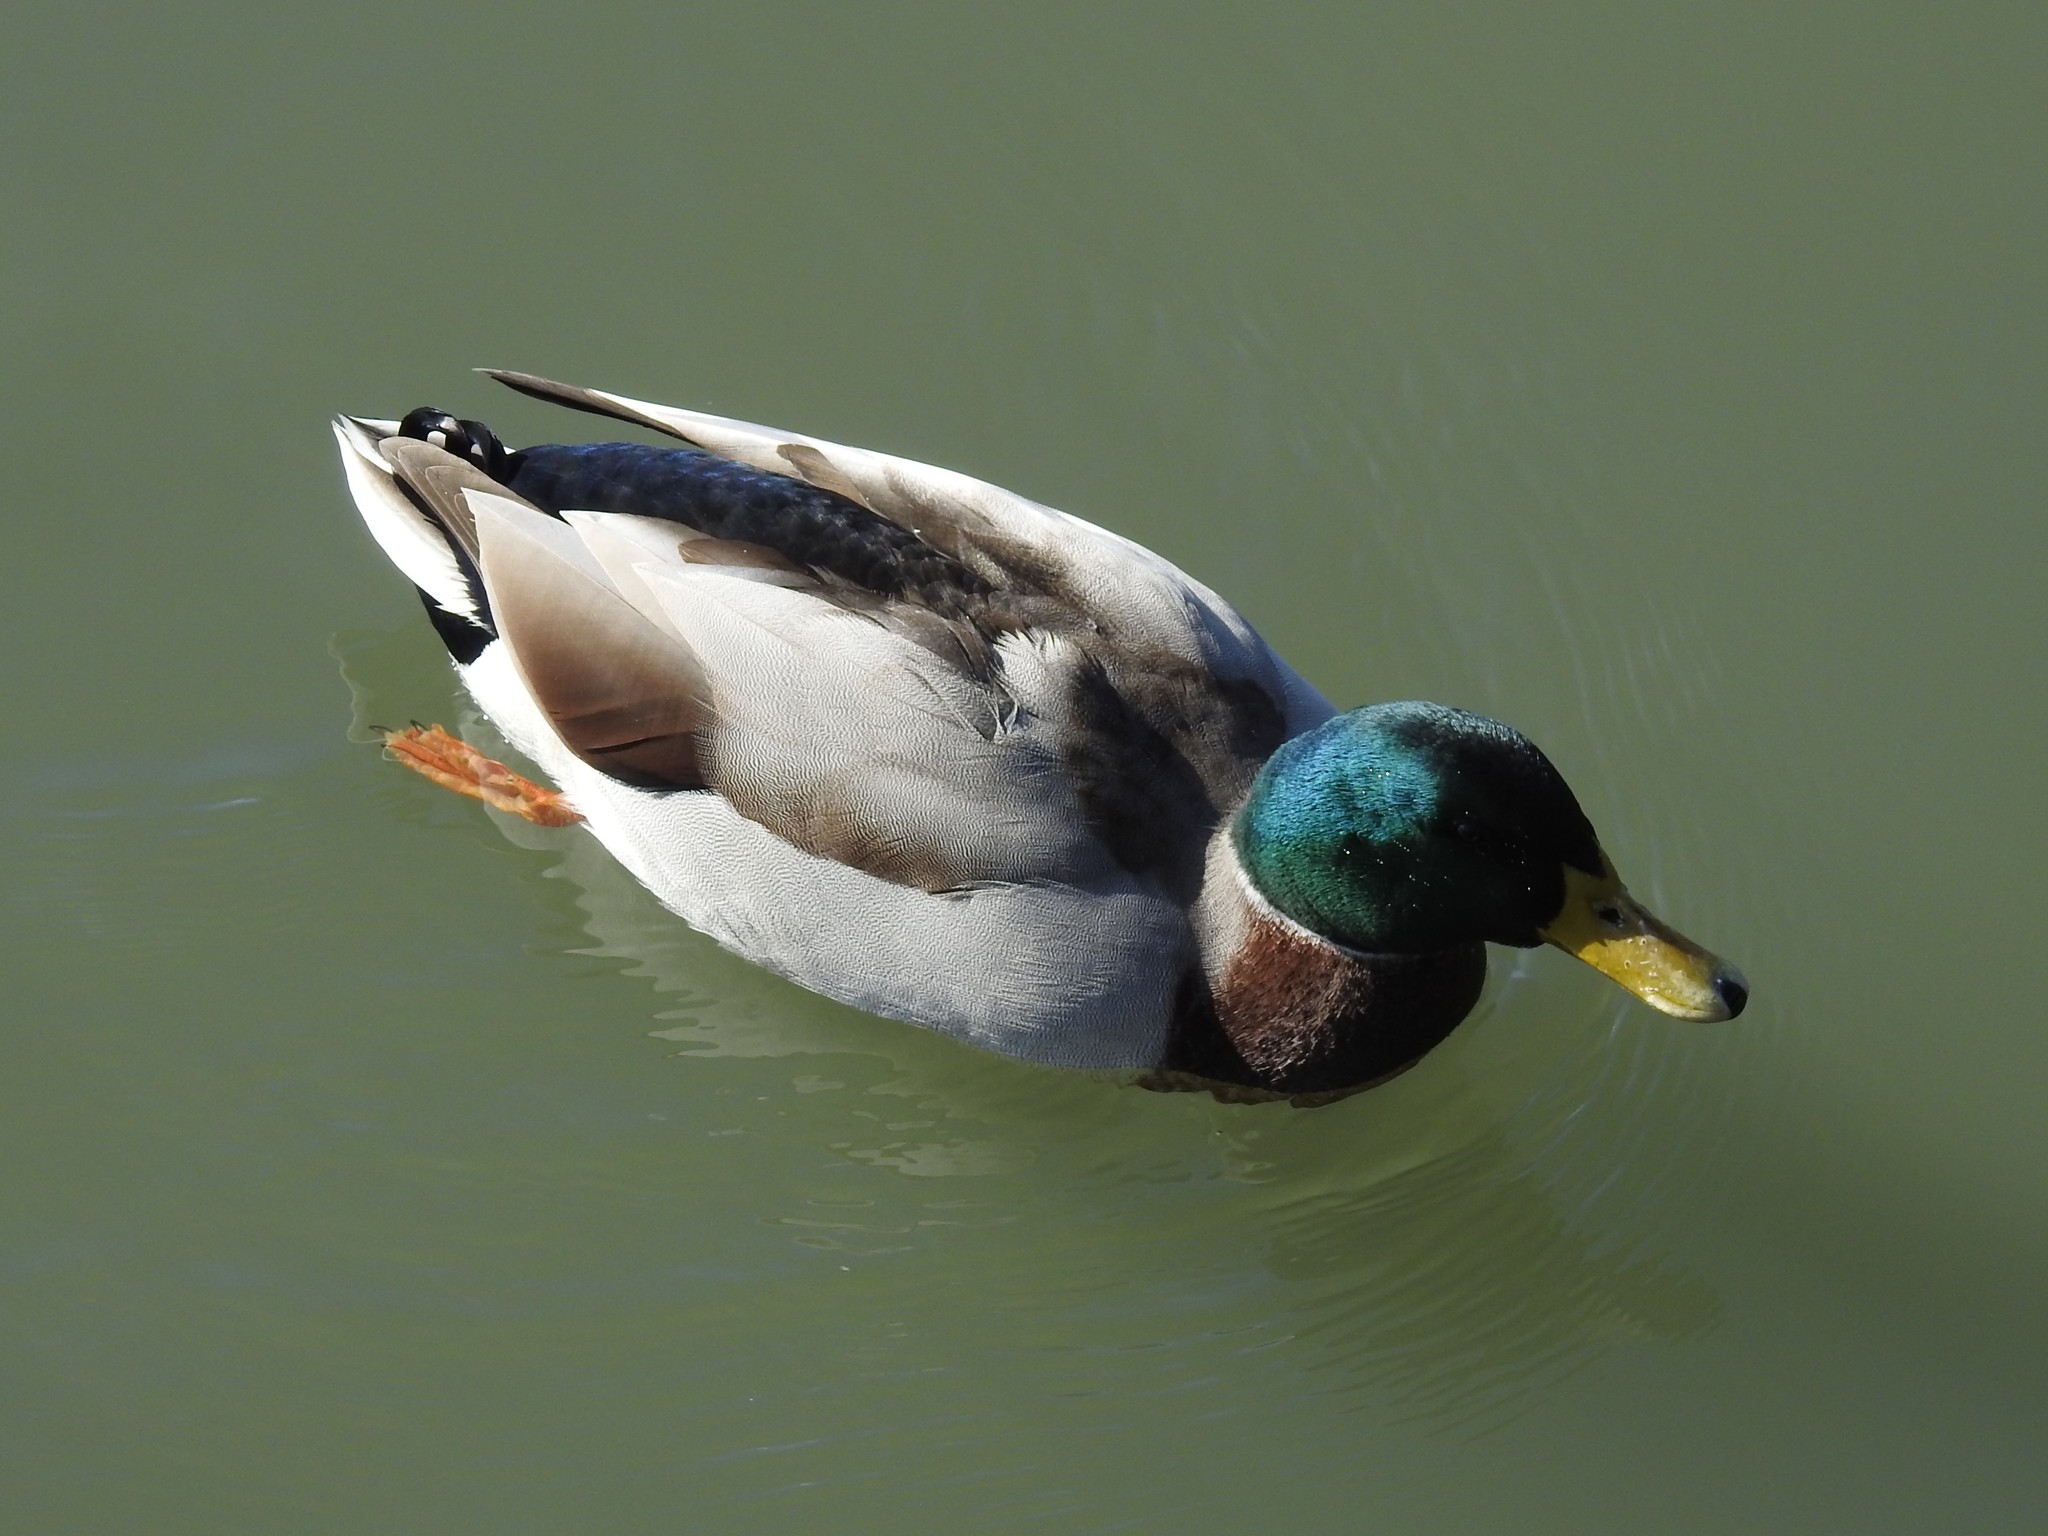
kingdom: Animalia
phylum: Chordata
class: Aves
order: Anseriformes
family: Anatidae
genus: Anas
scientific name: Anas platyrhynchos
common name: Mallard
